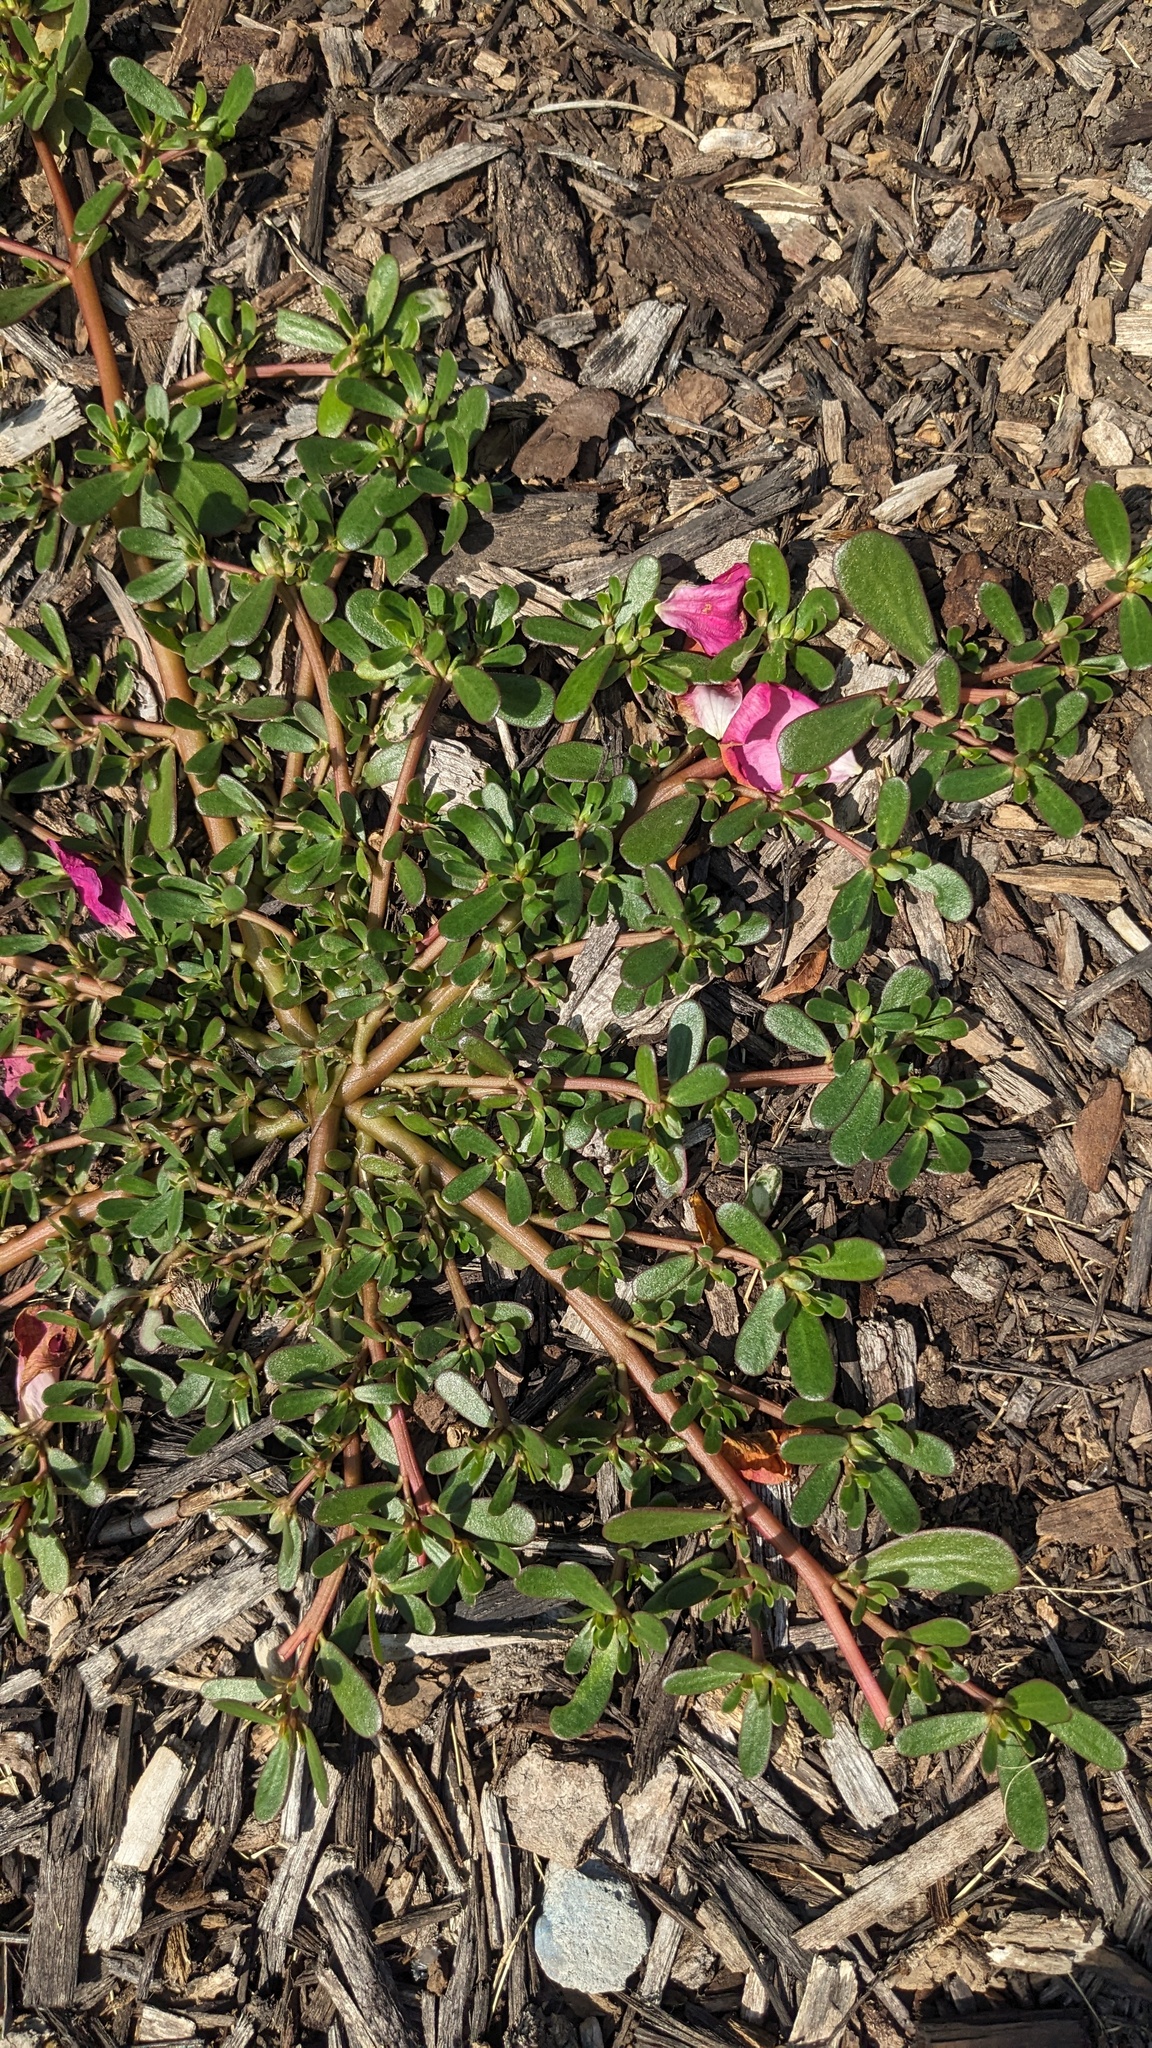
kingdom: Plantae
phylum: Tracheophyta
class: Magnoliopsida
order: Caryophyllales
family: Portulacaceae
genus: Portulaca
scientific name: Portulaca oleracea
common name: Common purslane
